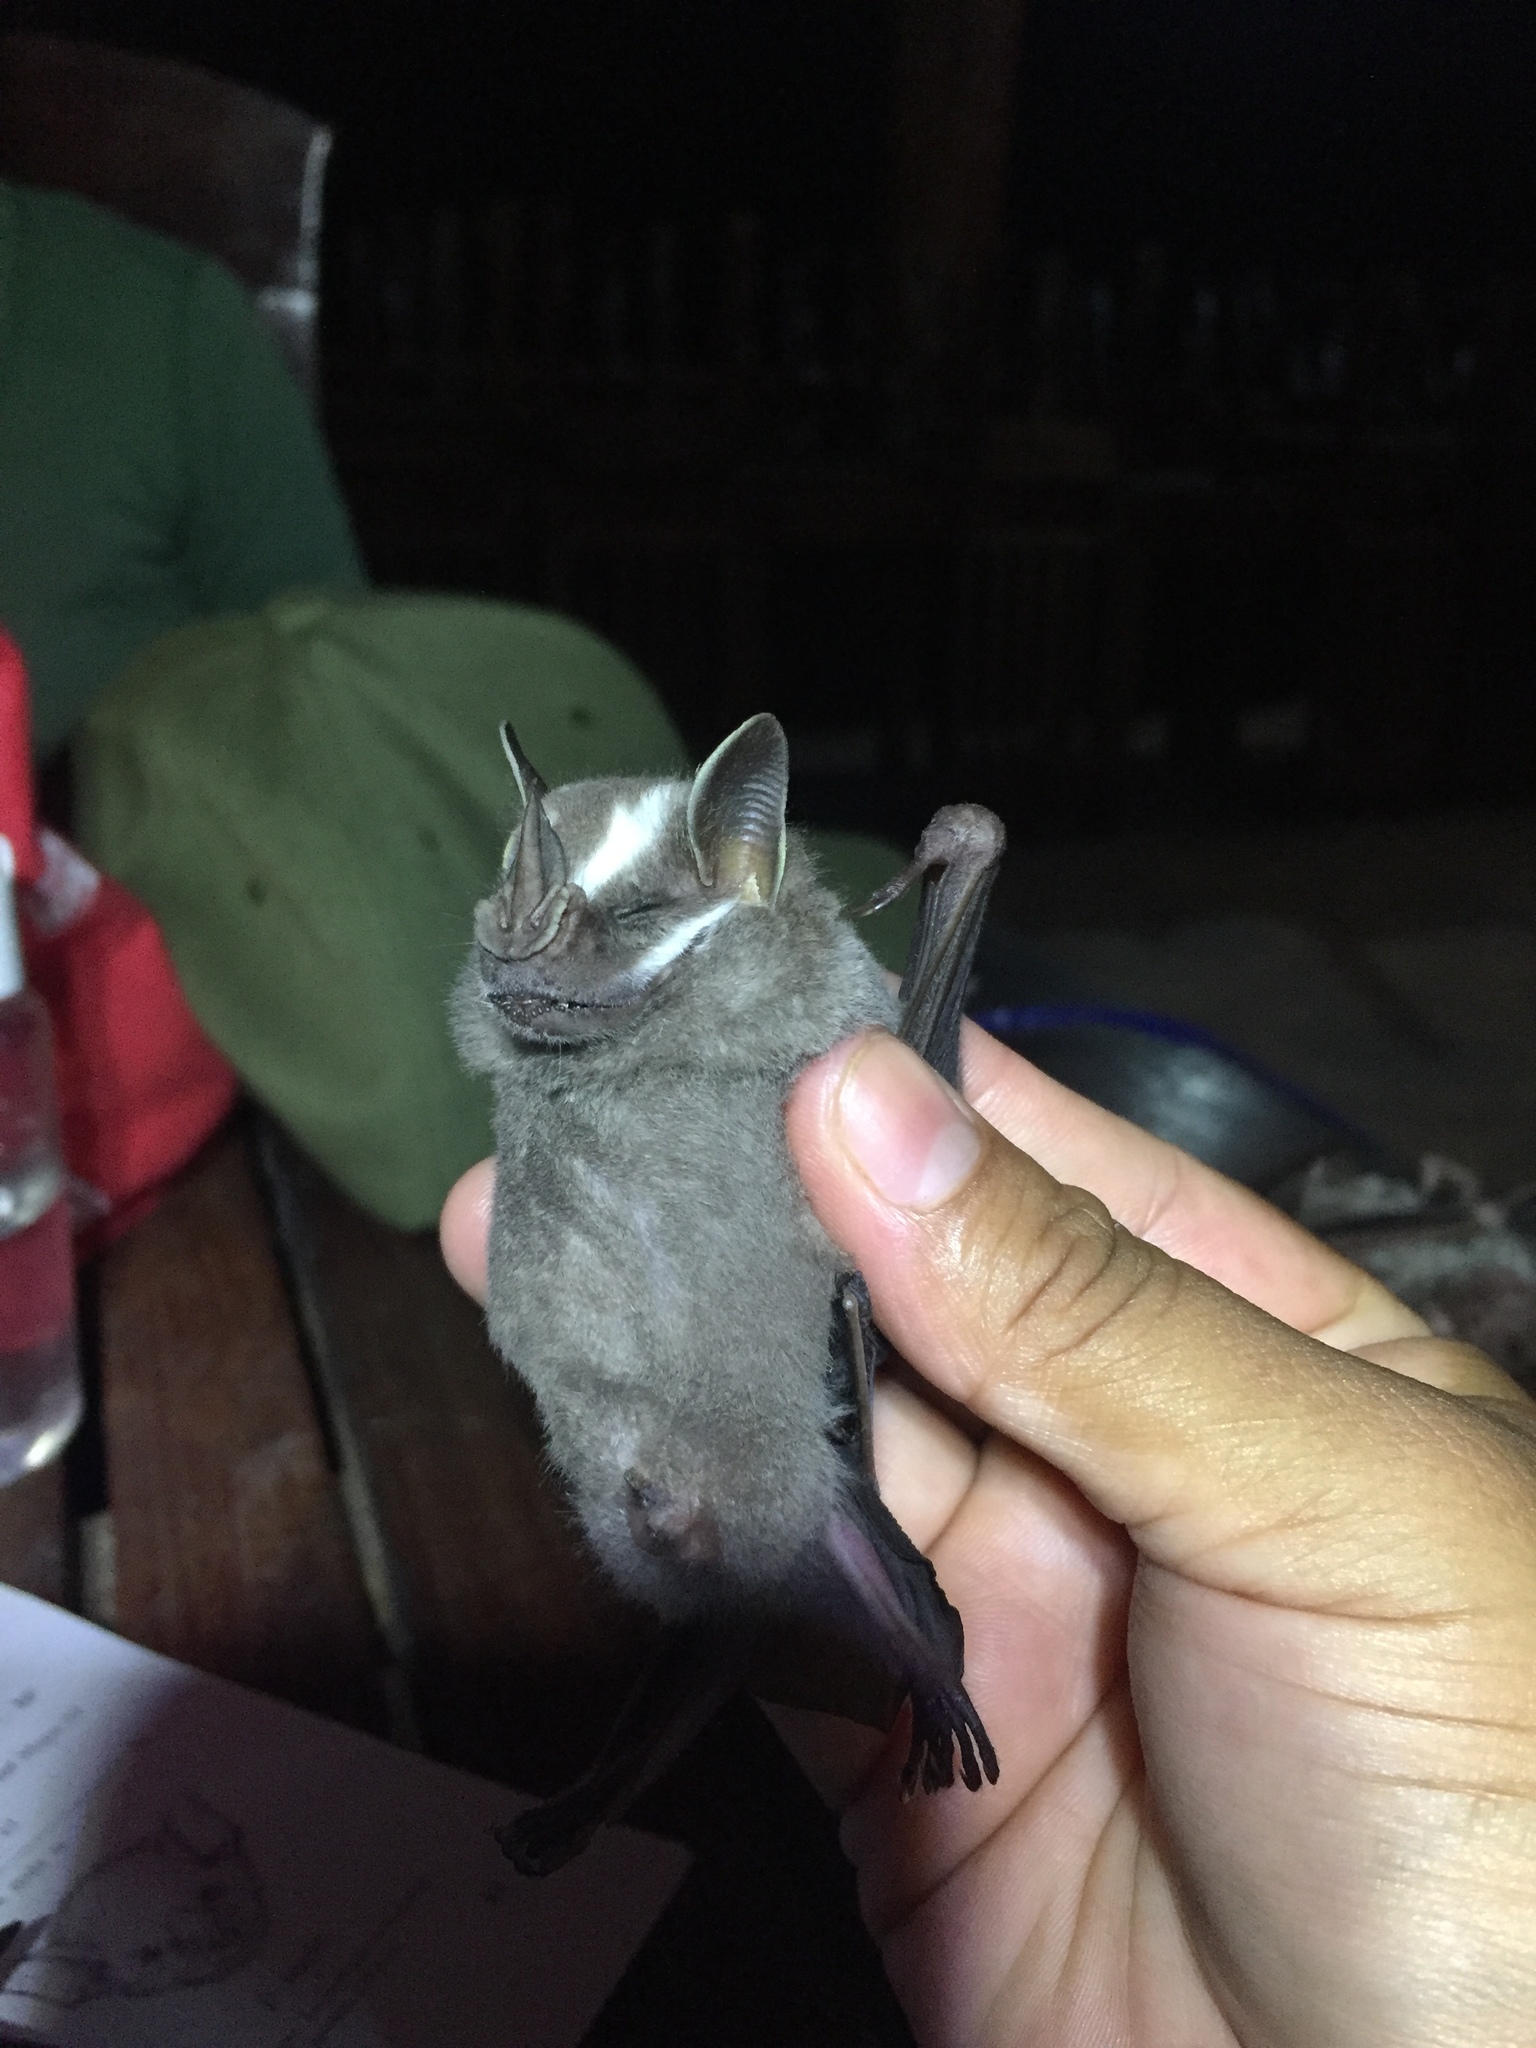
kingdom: Animalia
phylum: Chordata
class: Mammalia
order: Chiroptera
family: Phyllostomidae
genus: Uroderma
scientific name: Uroderma bilobatum
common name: Common tent-making bat
